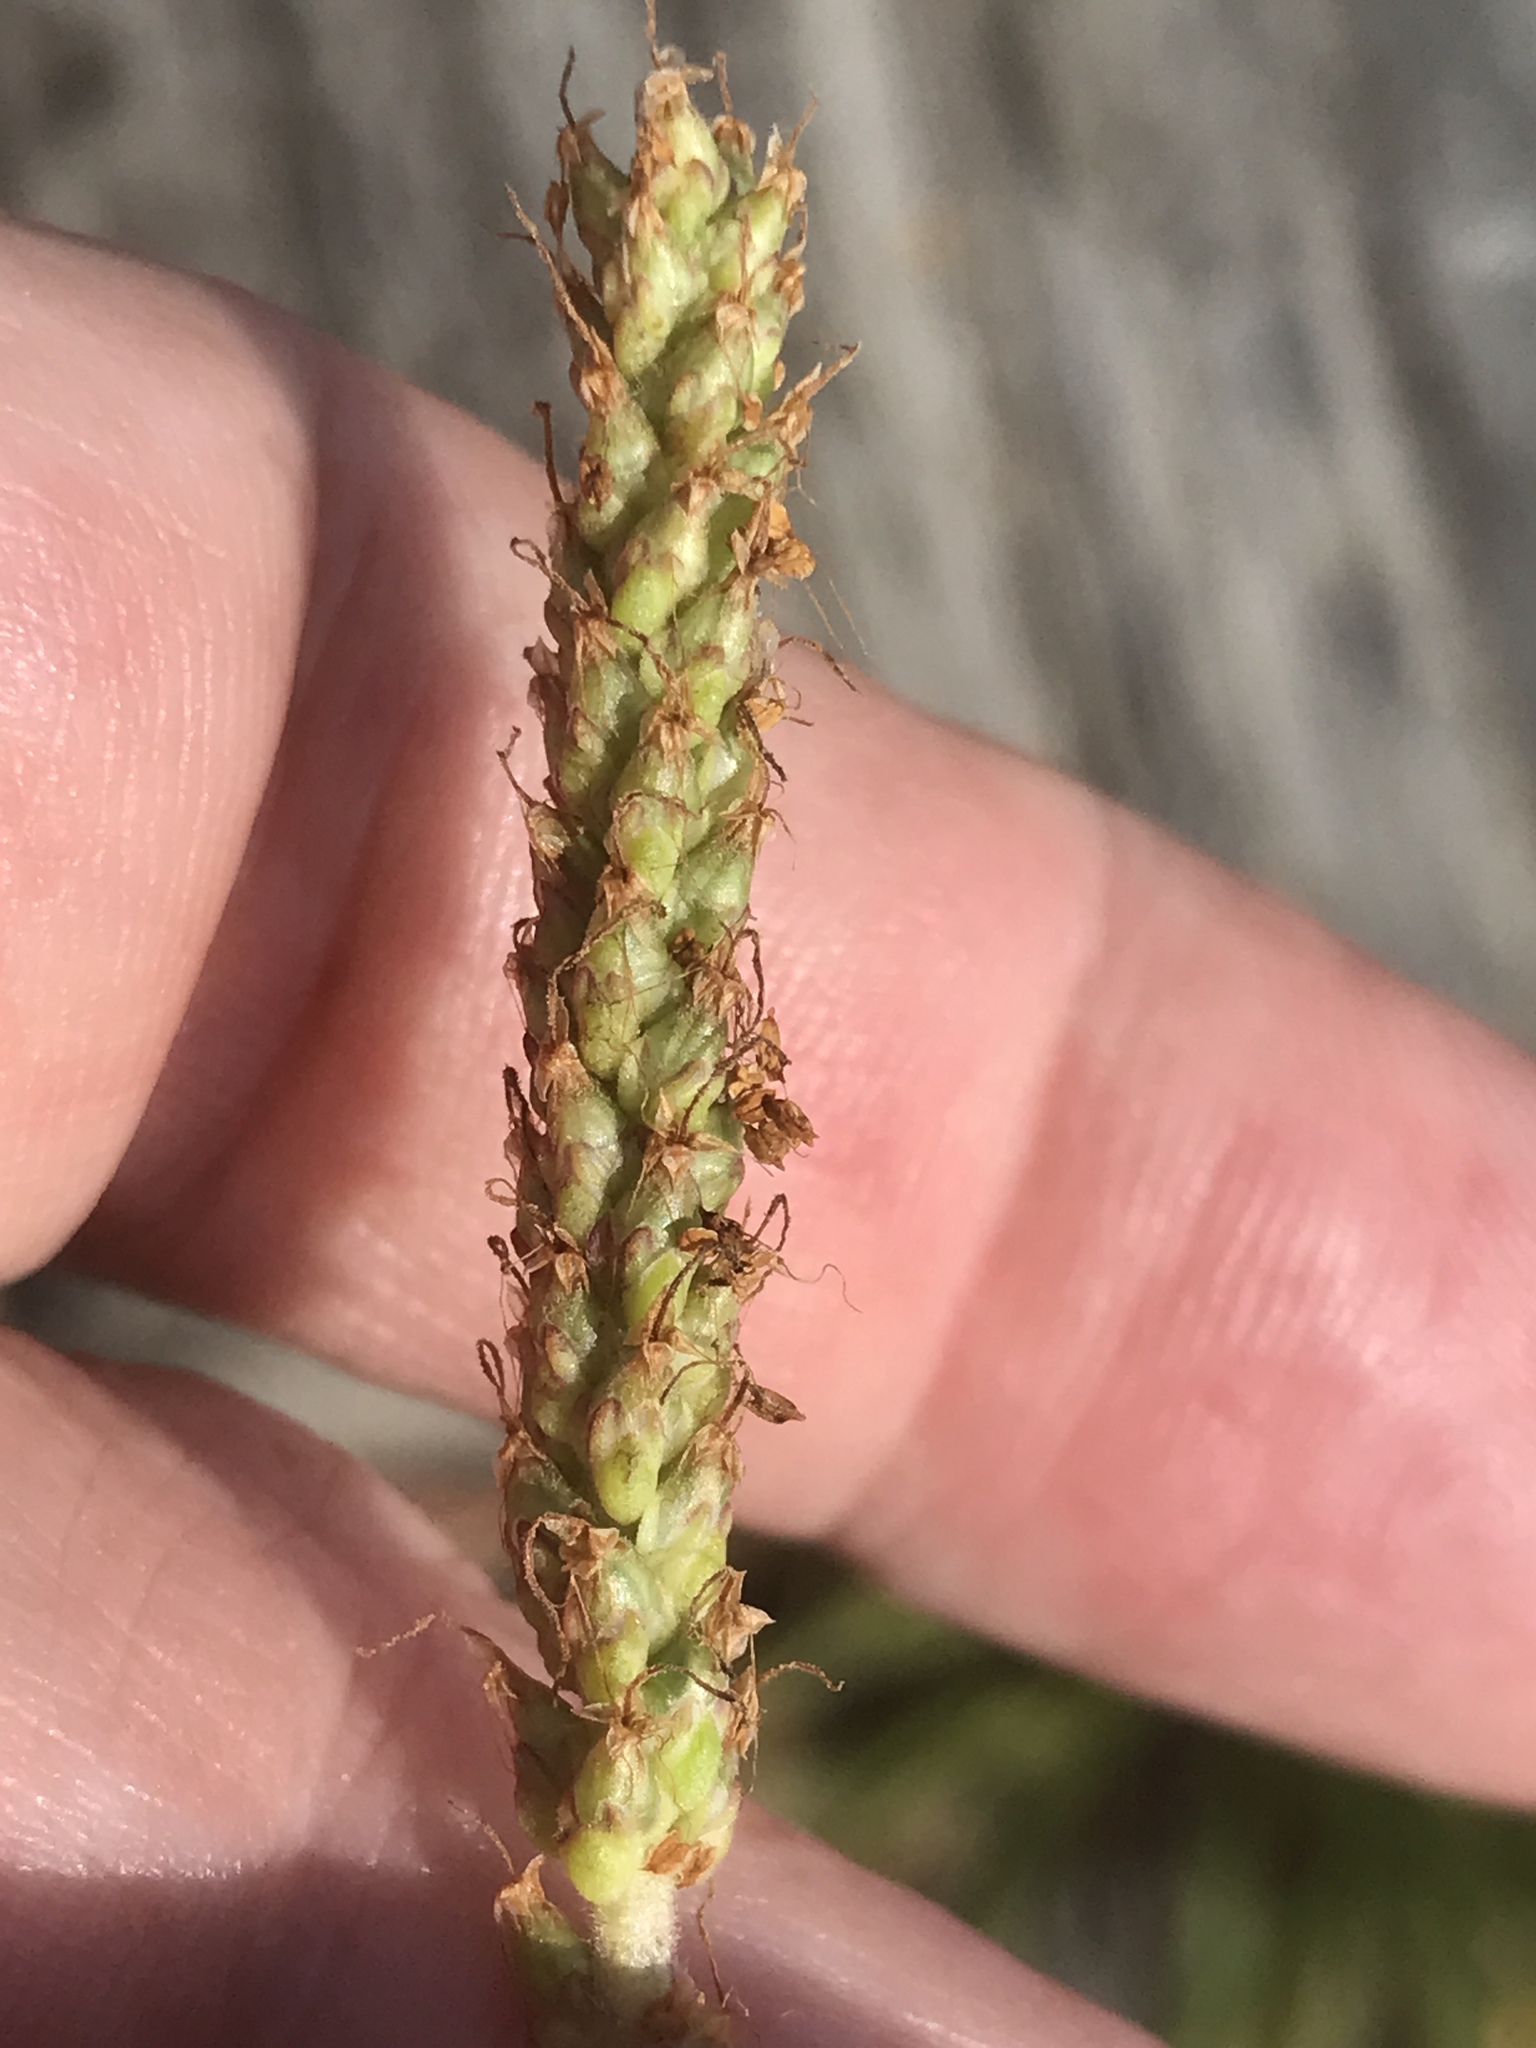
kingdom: Plantae
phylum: Tracheophyta
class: Magnoliopsida
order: Lamiales
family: Plantaginaceae
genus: Plantago
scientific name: Plantago maritima
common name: Sea plantain
